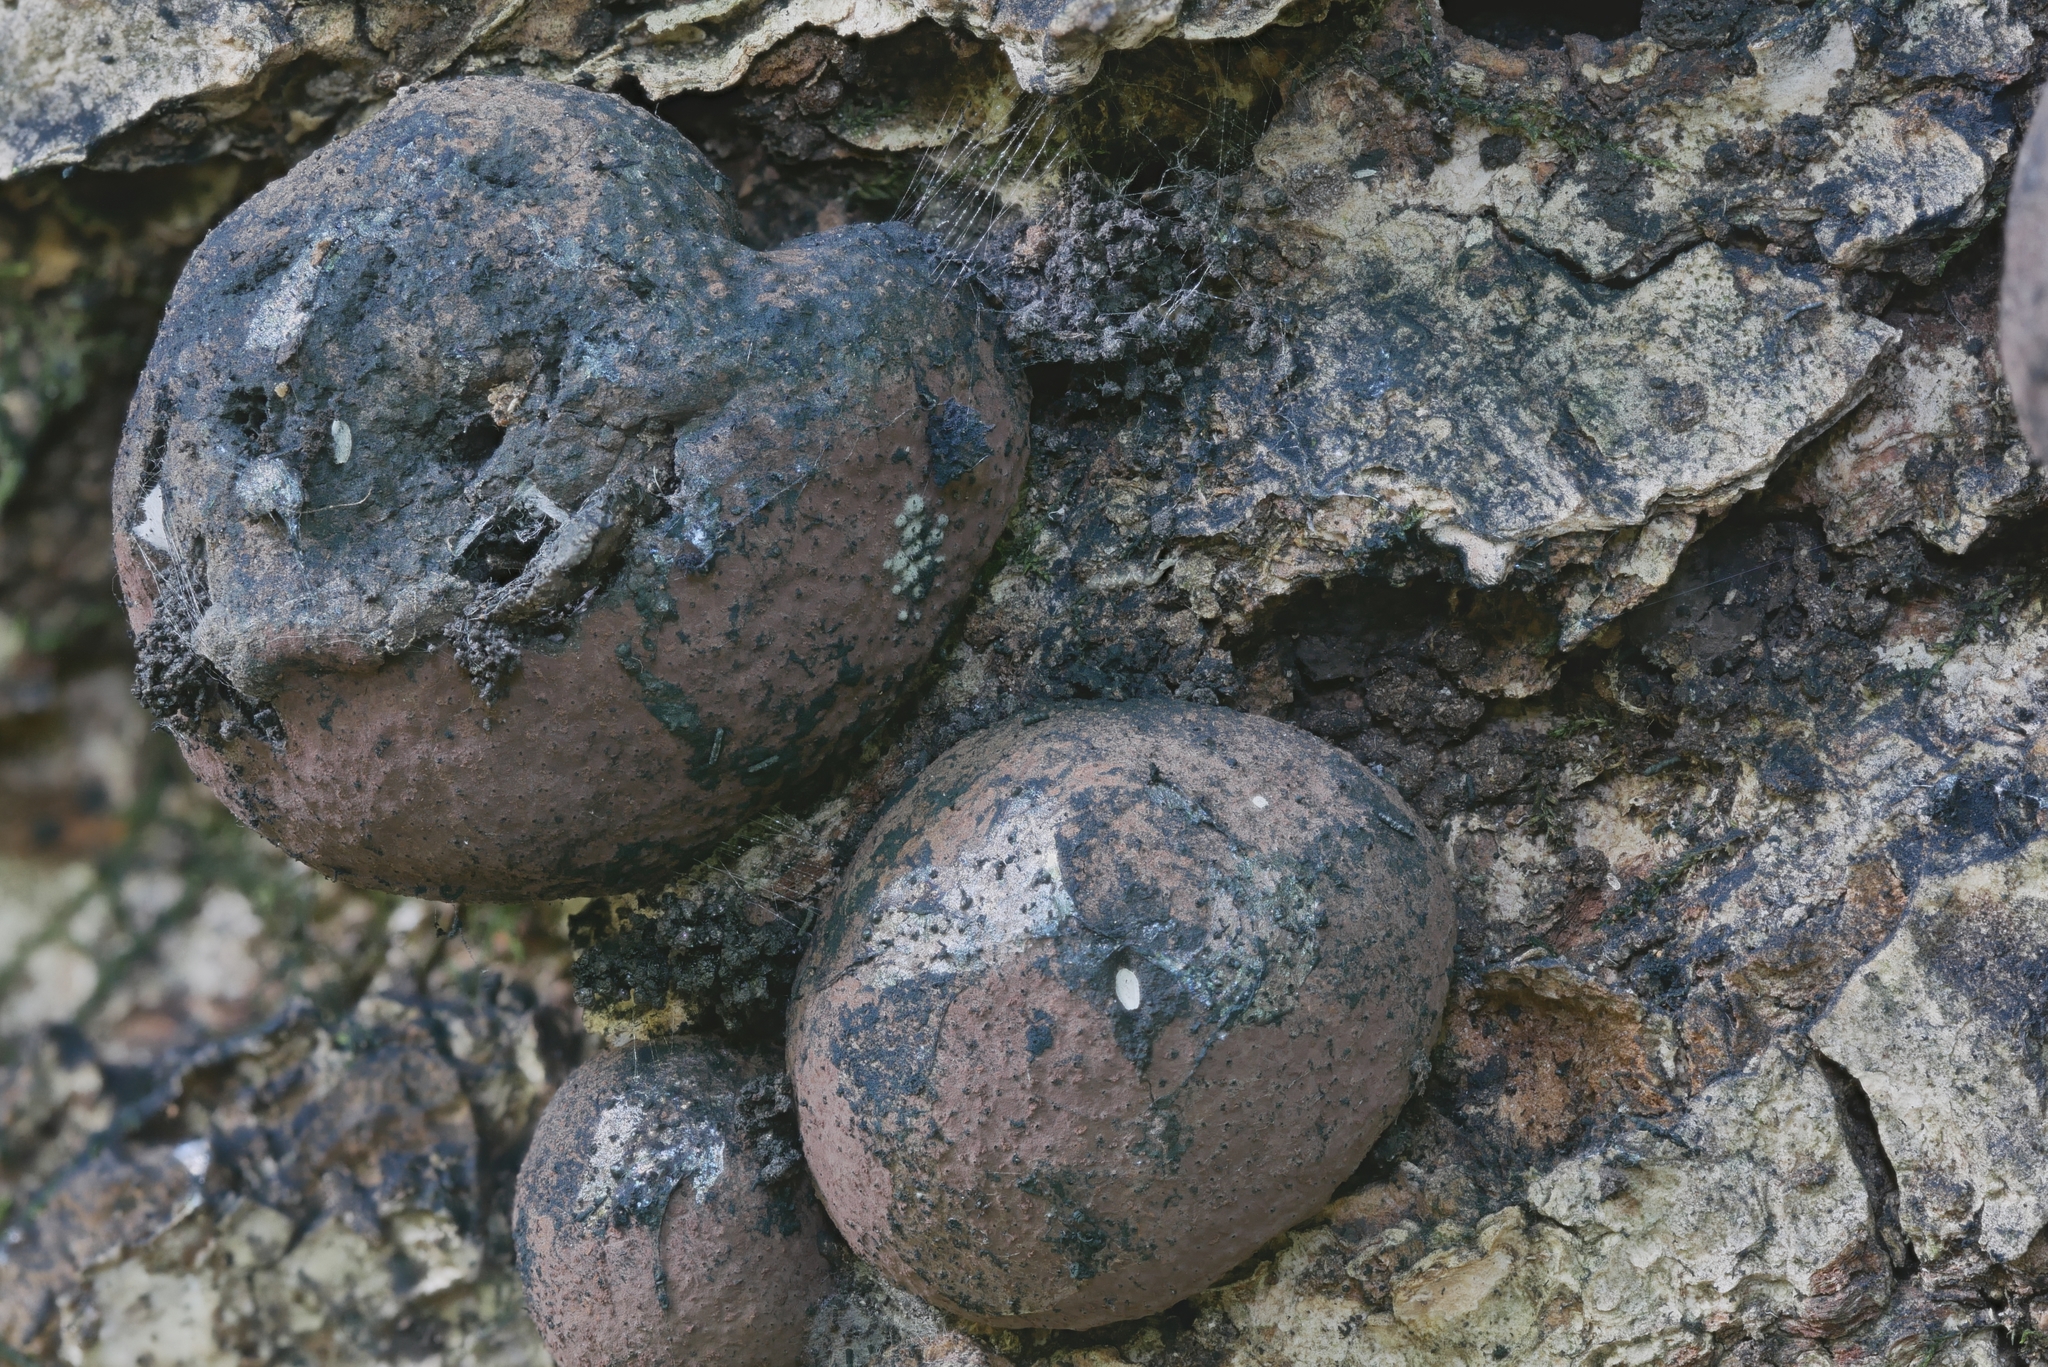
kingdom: Fungi
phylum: Ascomycota
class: Sordariomycetes
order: Xylariales
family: Hypoxylaceae
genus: Daldinia
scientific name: Daldinia childiae
